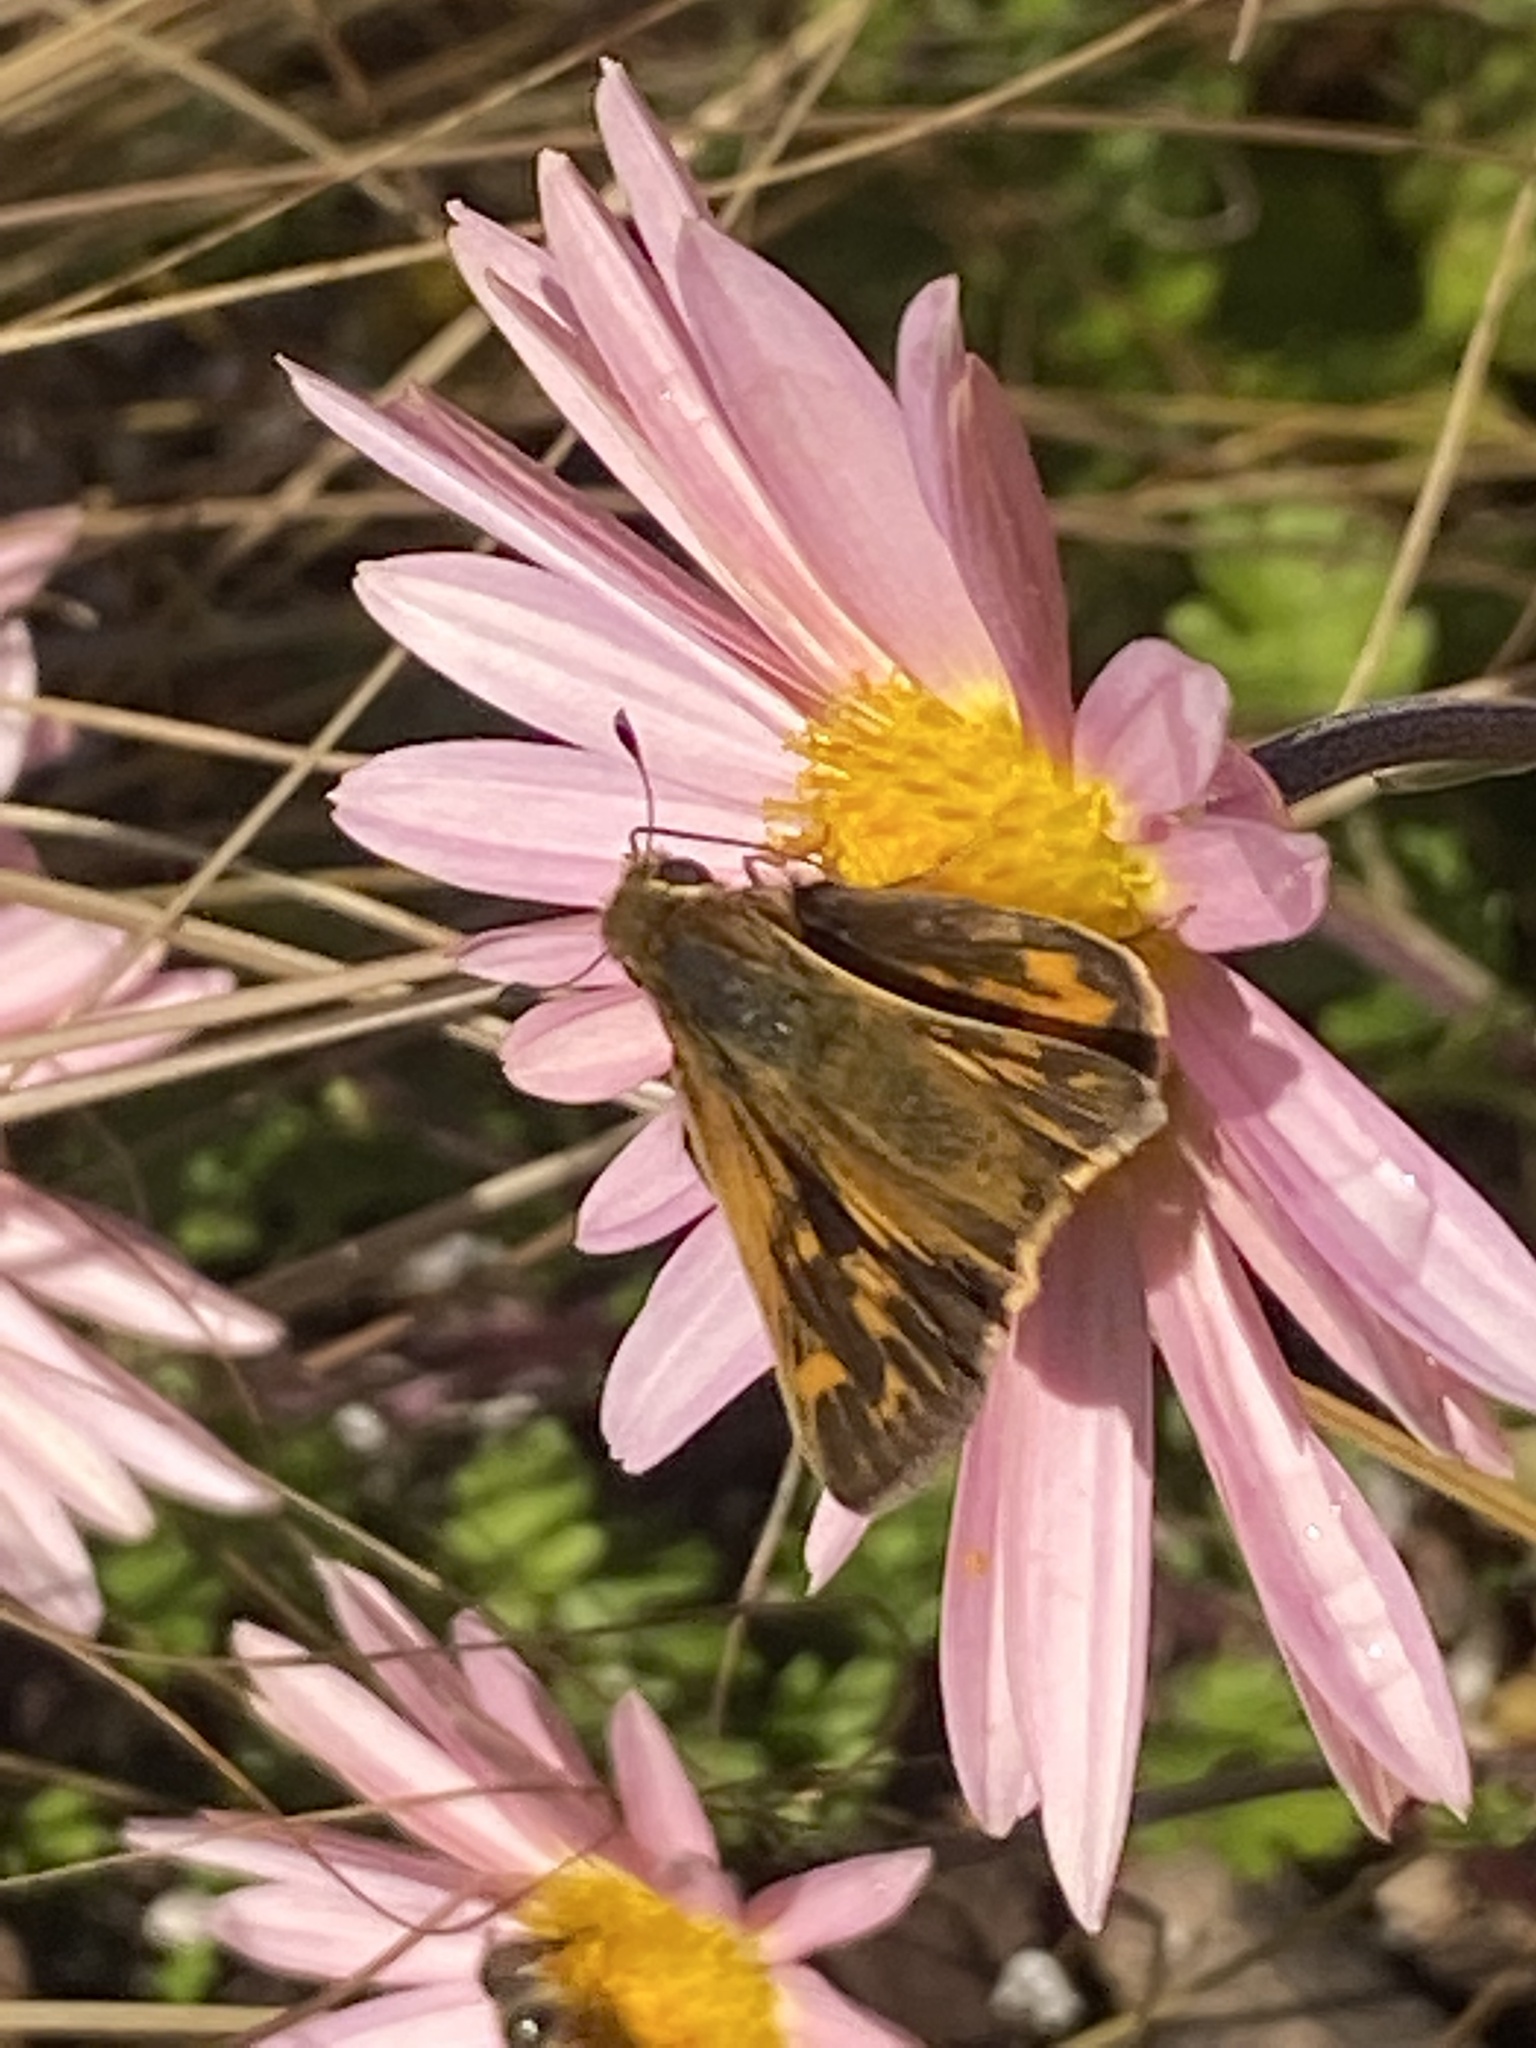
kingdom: Animalia
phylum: Arthropoda
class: Insecta
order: Lepidoptera
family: Hesperiidae
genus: Hylephila
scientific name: Hylephila phyleus
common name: Fiery skipper
